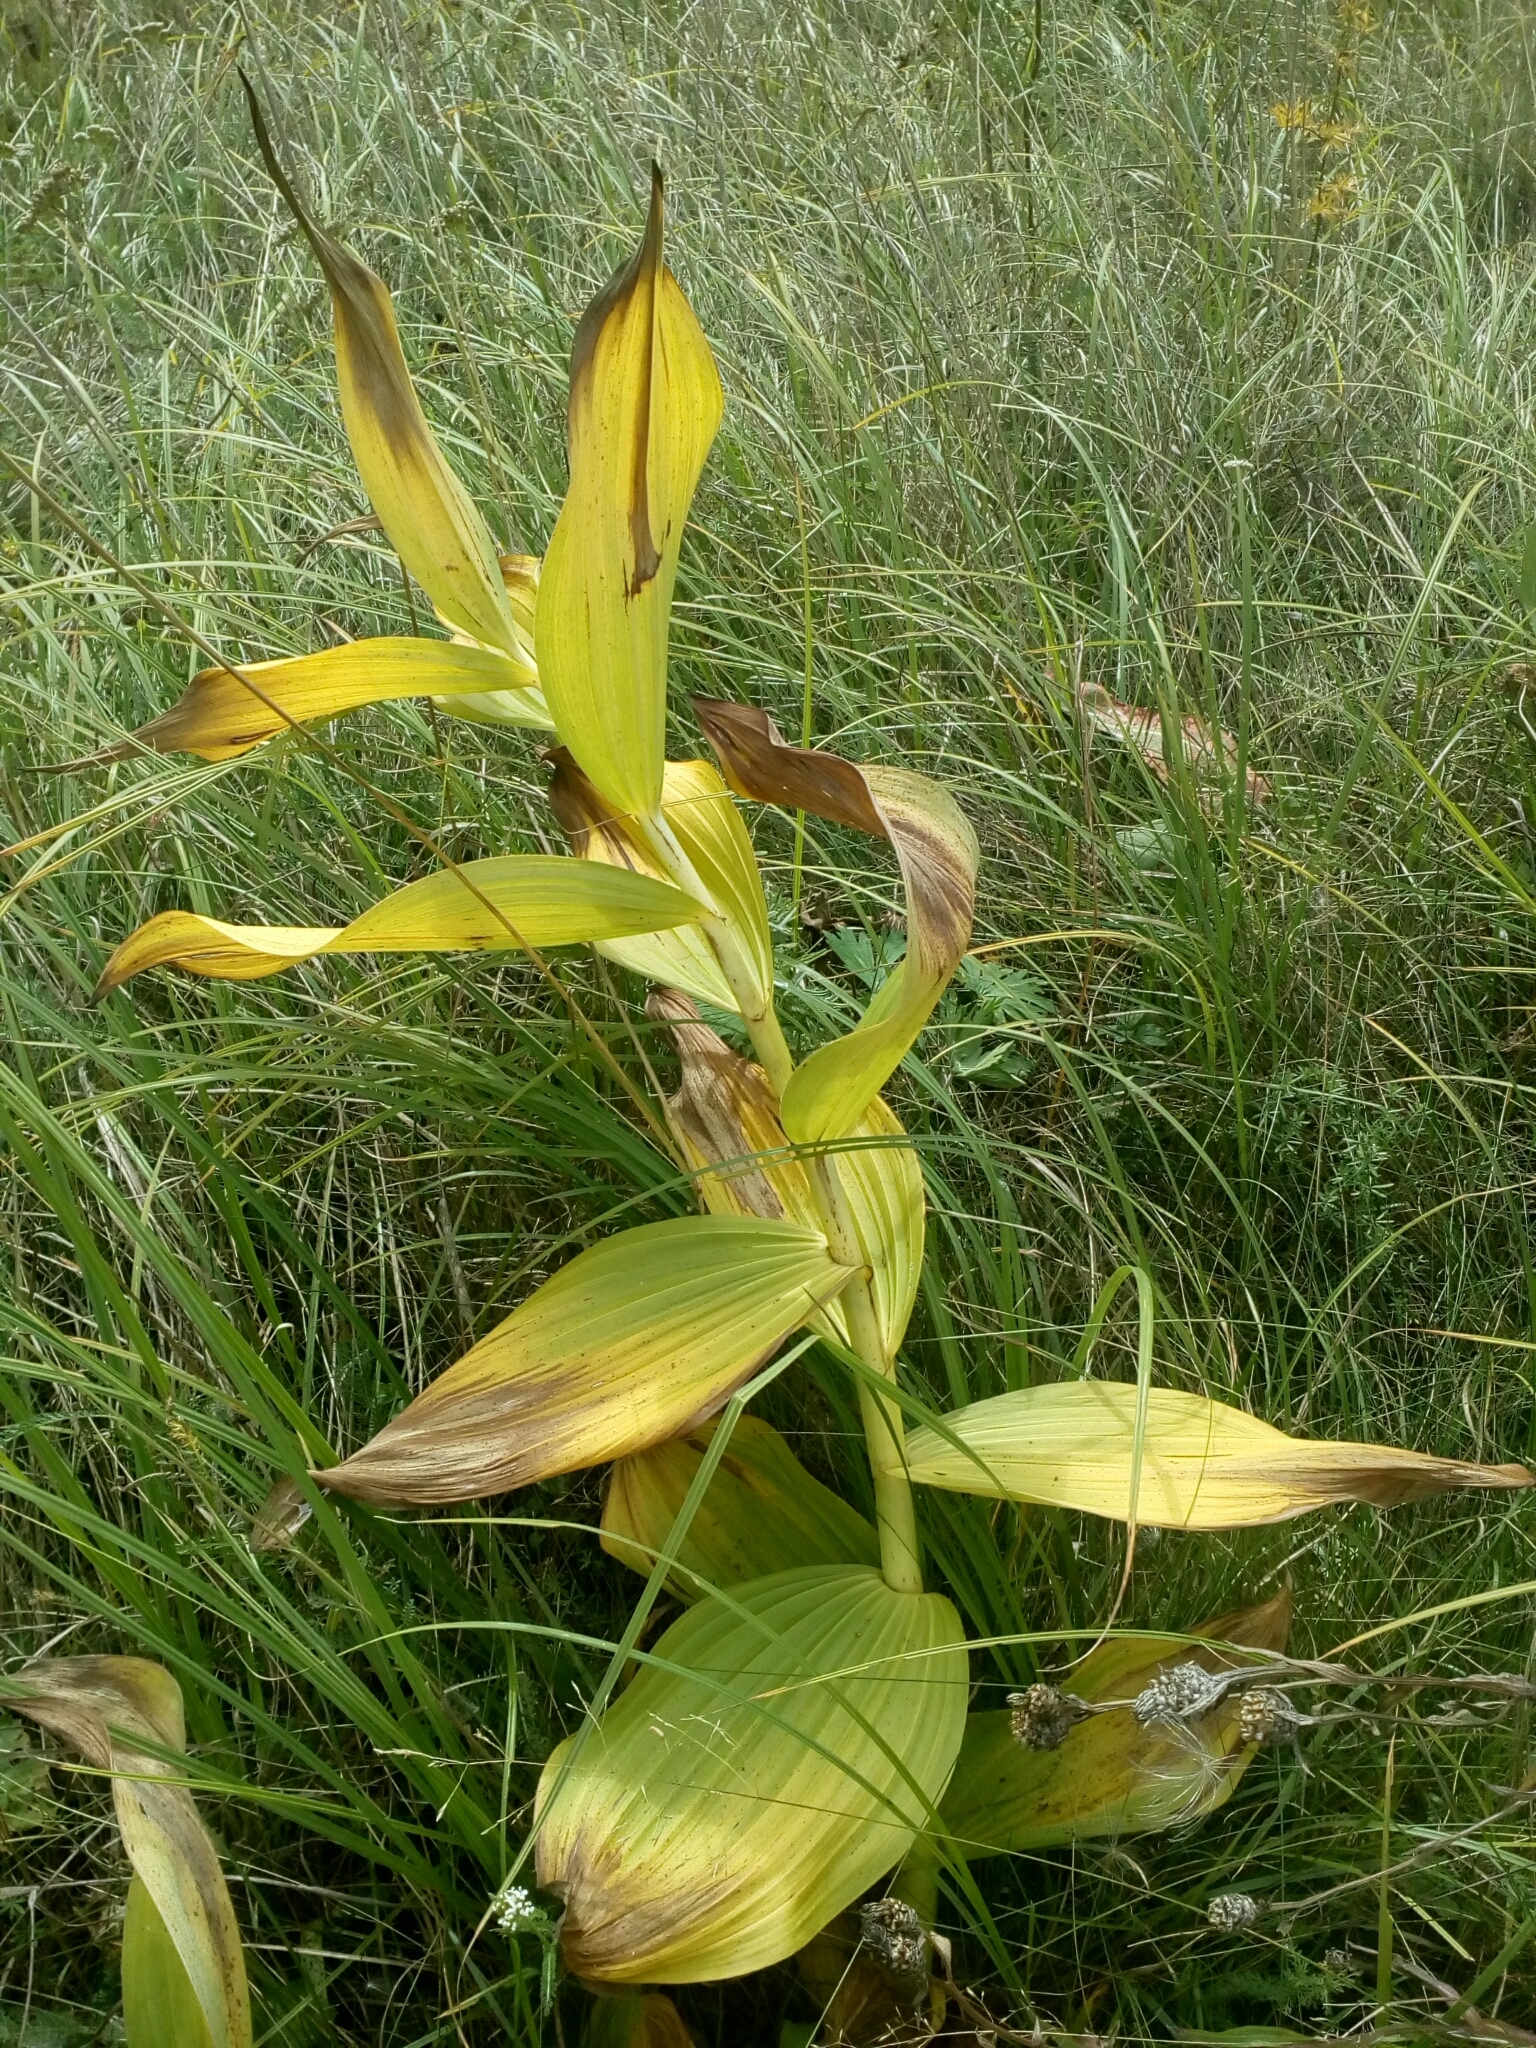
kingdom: Plantae
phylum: Tracheophyta
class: Liliopsida
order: Liliales
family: Melanthiaceae
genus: Veratrum
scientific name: Veratrum lobelianum
